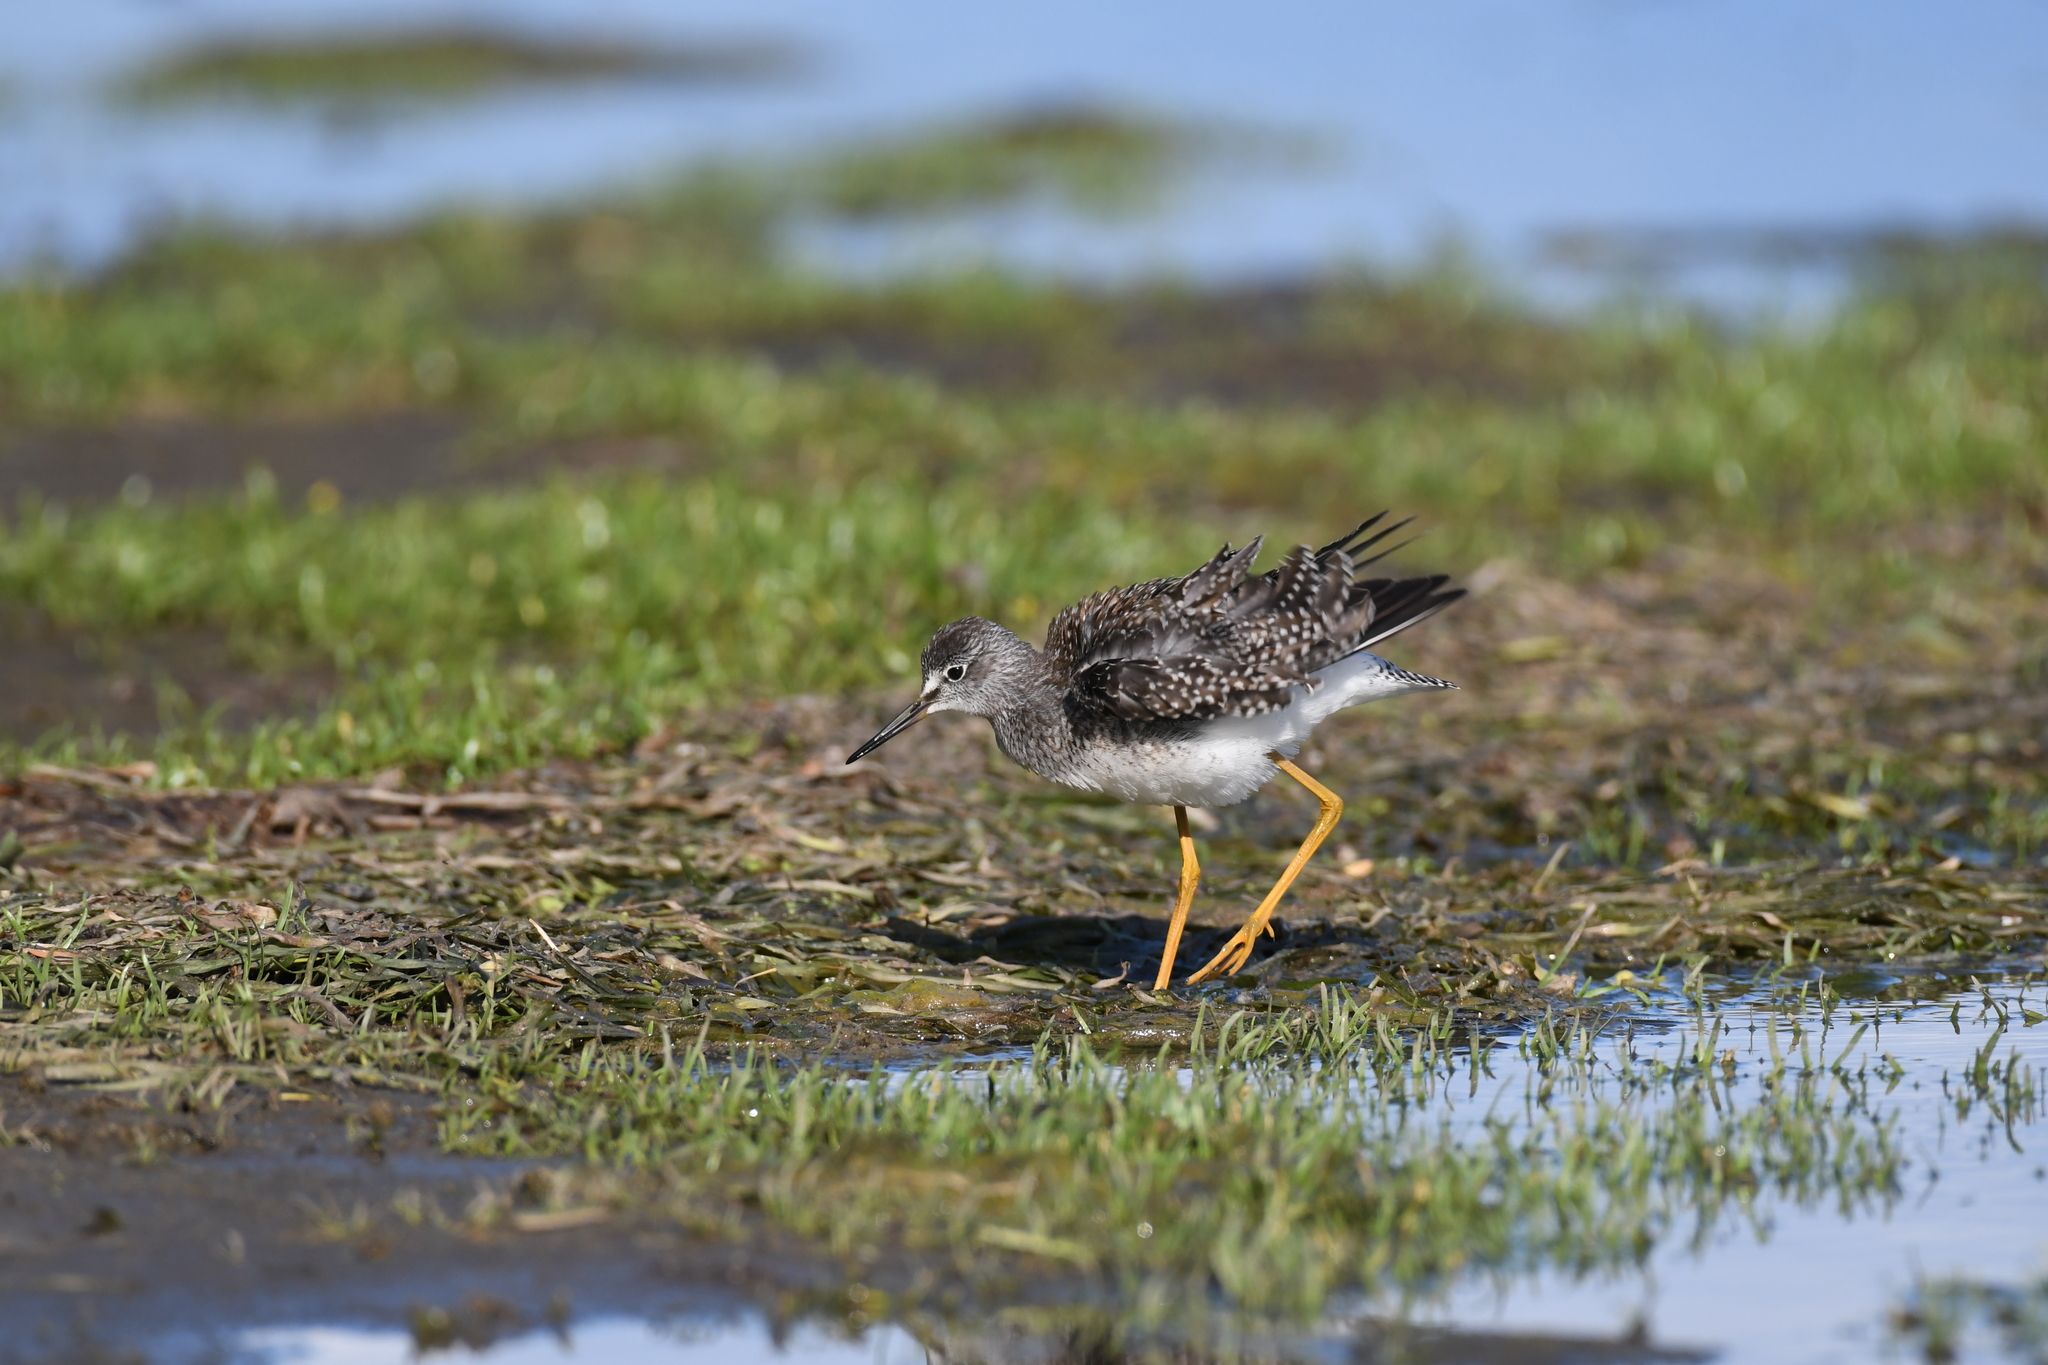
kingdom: Animalia
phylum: Chordata
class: Aves
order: Charadriiformes
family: Scolopacidae
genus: Tringa
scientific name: Tringa flavipes
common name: Lesser yellowlegs
